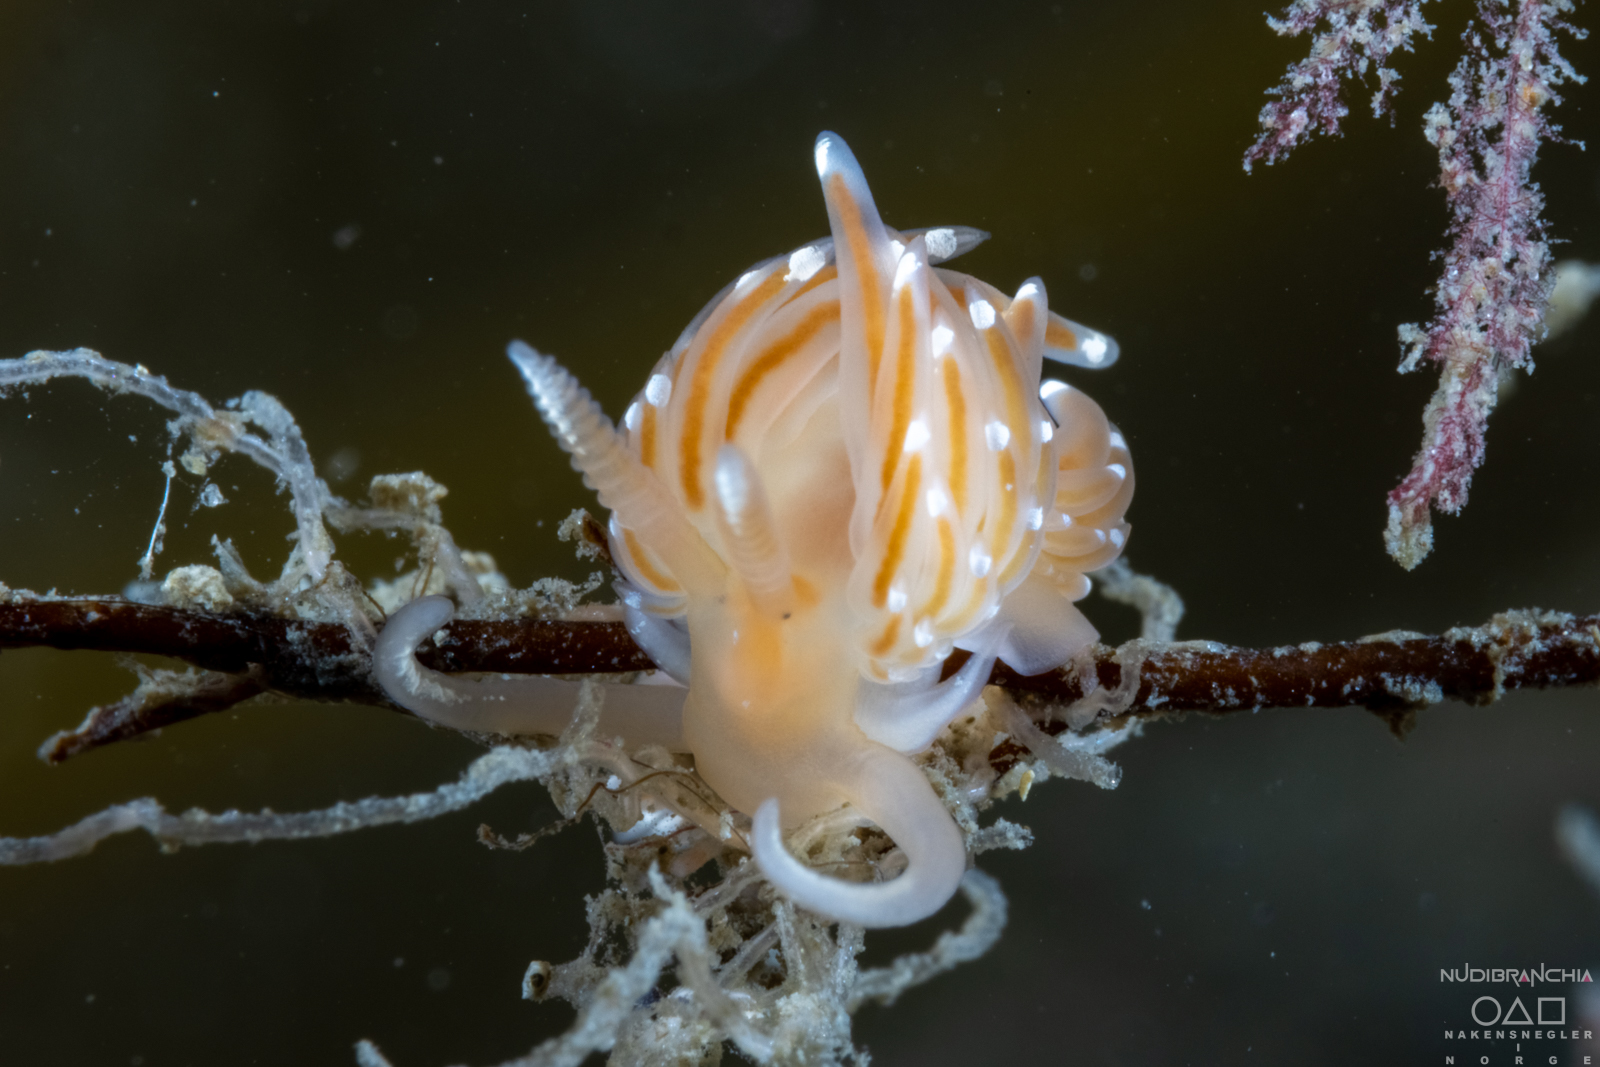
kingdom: Animalia
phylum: Mollusca
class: Gastropoda
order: Nudibranchia
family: Facelinidae
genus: Facelina
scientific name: Facelina bostoniensis
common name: Boston facelina
